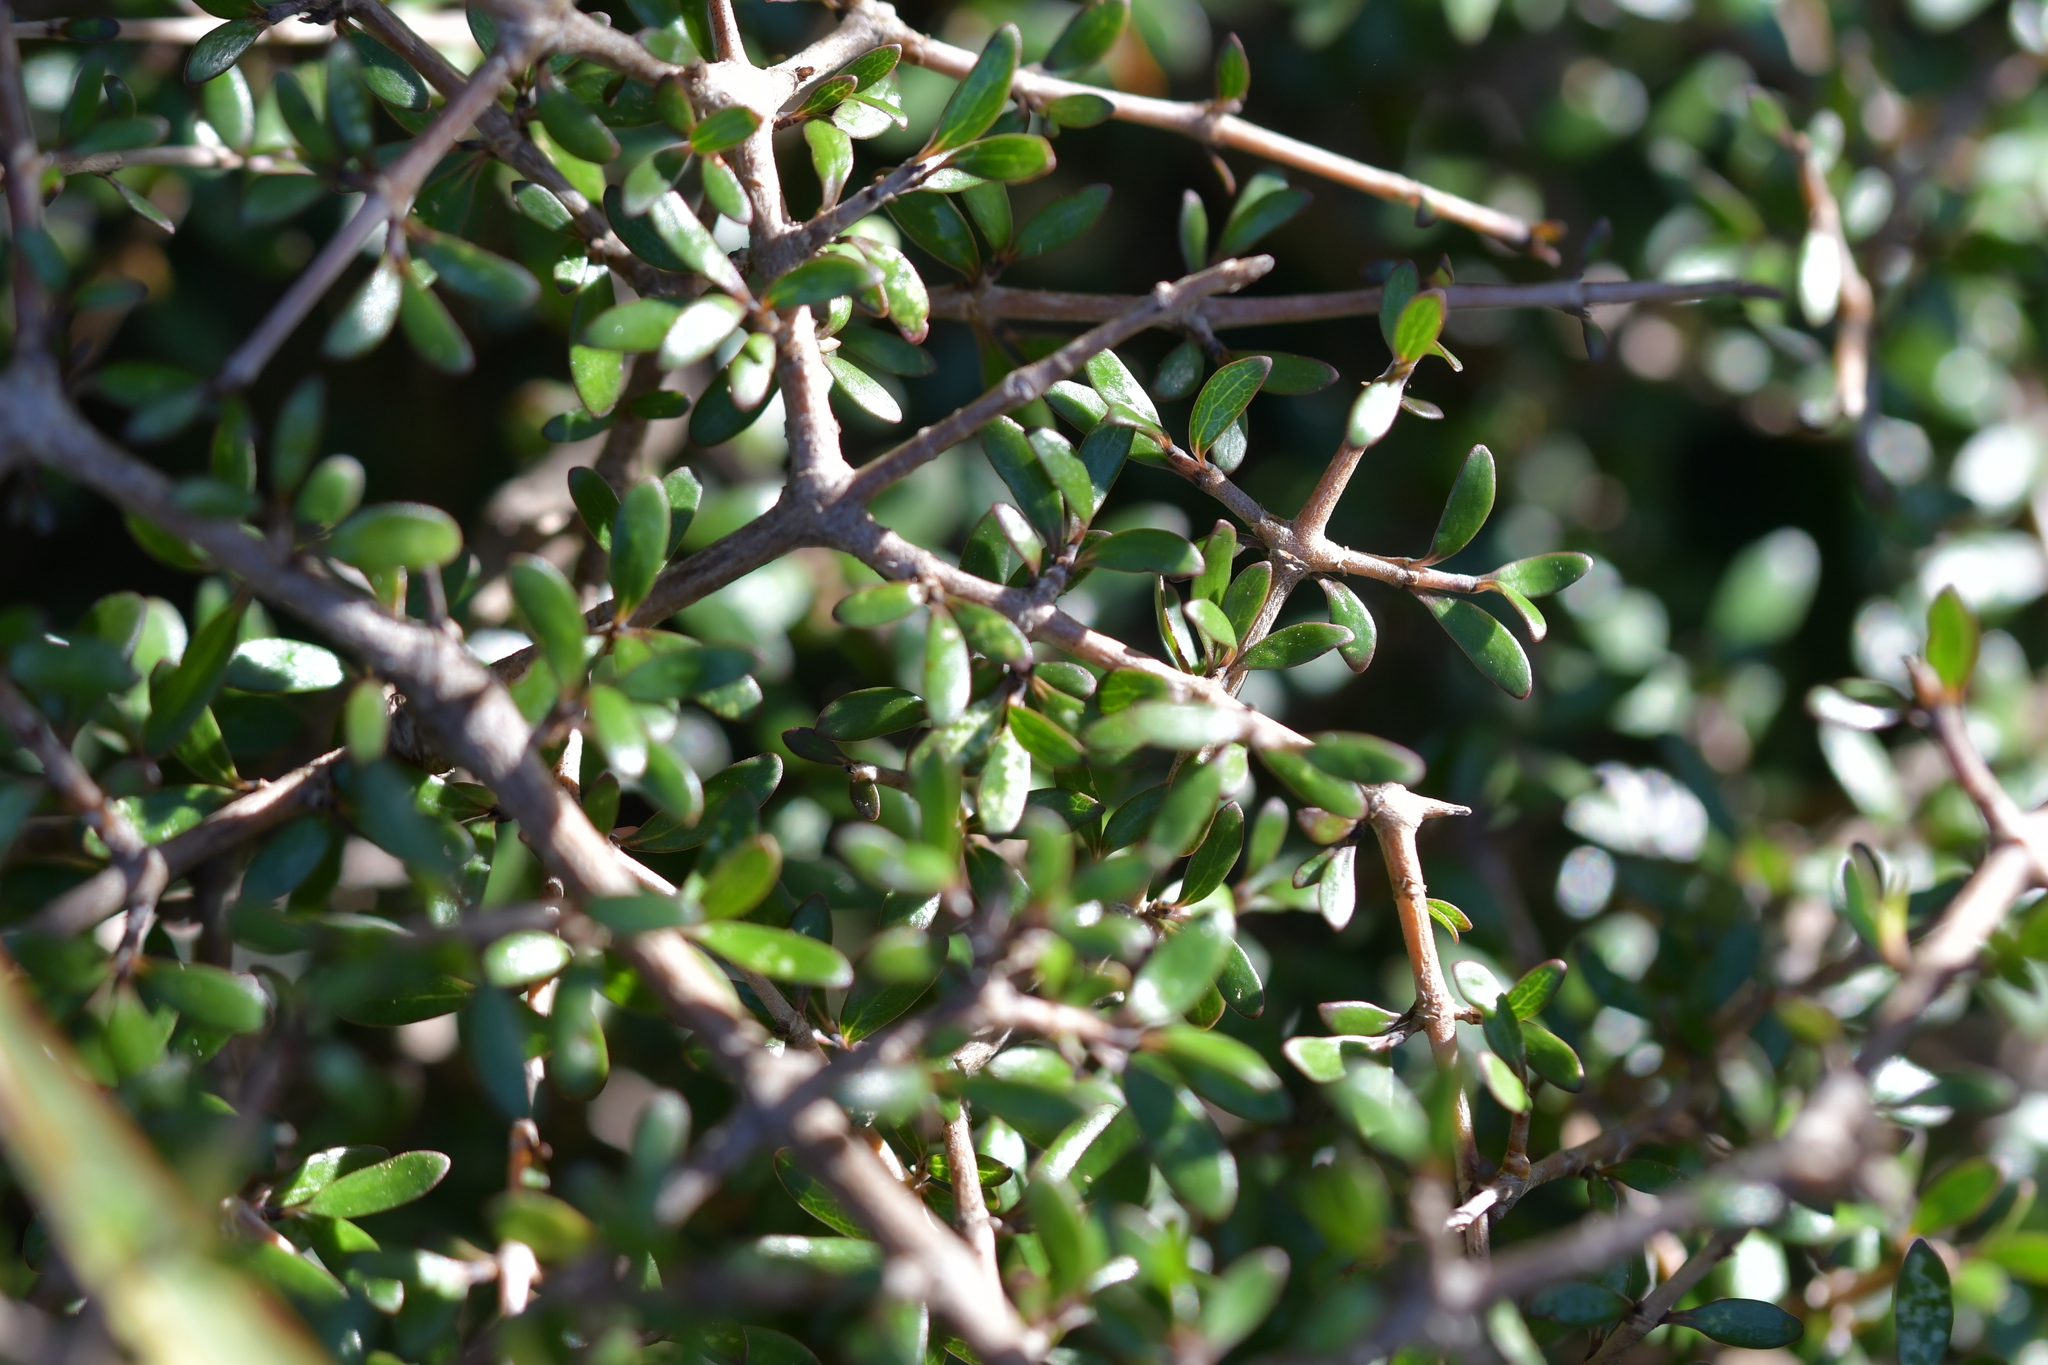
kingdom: Plantae
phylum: Tracheophyta
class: Magnoliopsida
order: Gentianales
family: Rubiaceae
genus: Coprosma
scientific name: Coprosma propinqua
